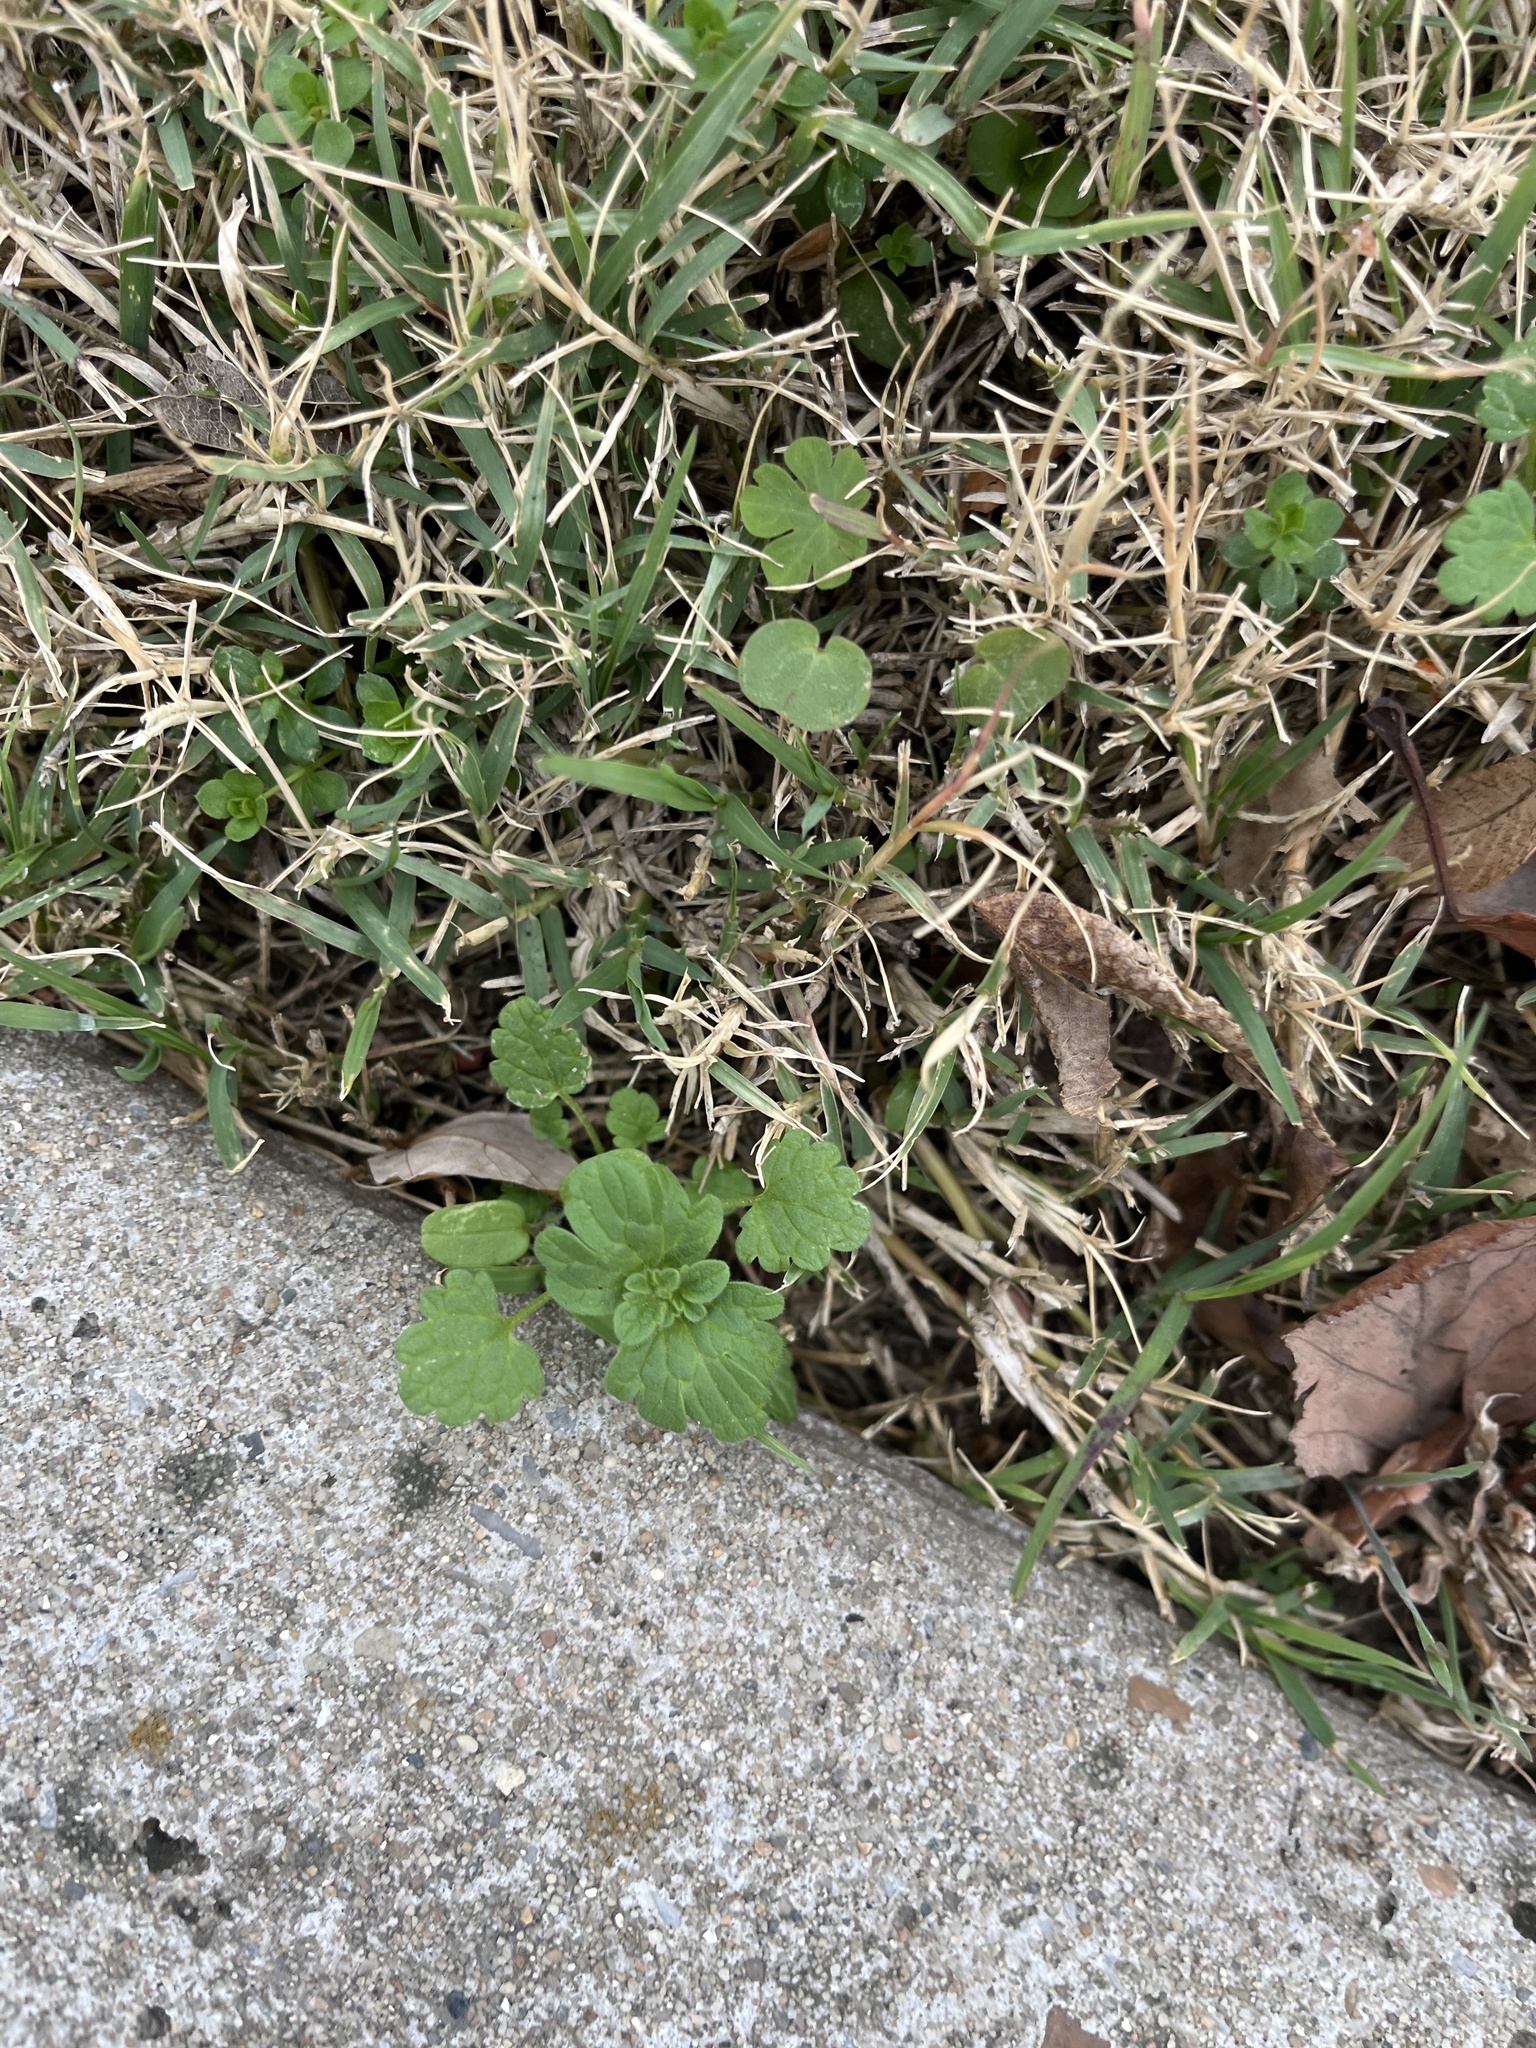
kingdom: Plantae
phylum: Tracheophyta
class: Magnoliopsida
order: Lamiales
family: Lamiaceae
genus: Lamium
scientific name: Lamium amplexicaule
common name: Henbit dead-nettle
